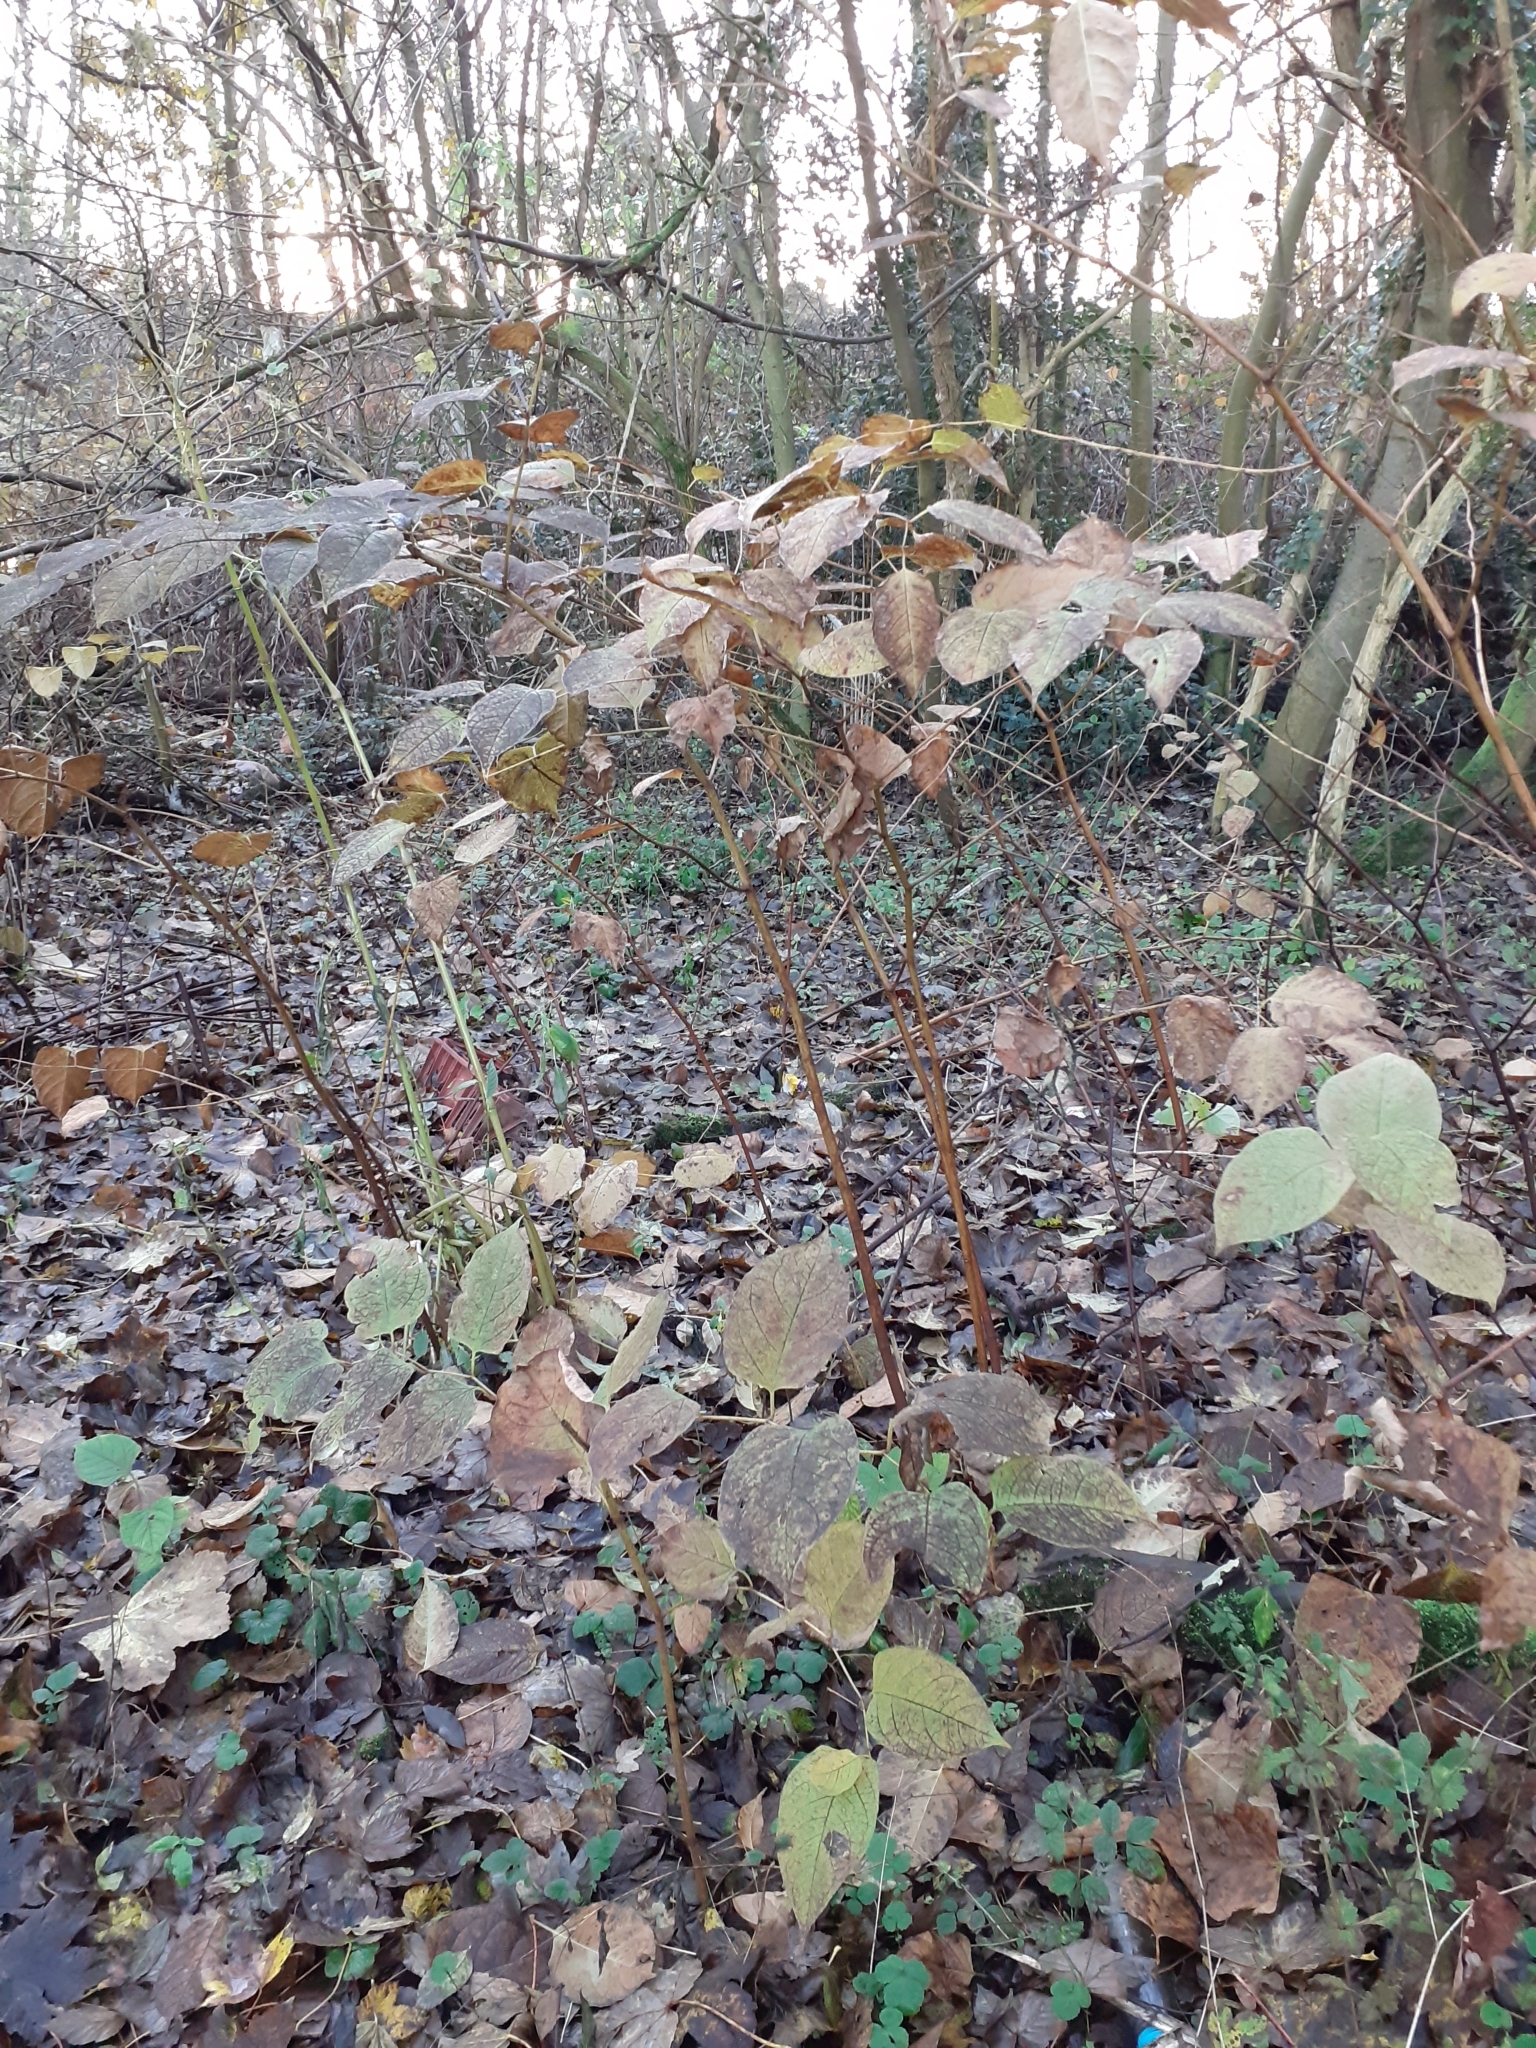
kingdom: Plantae
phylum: Tracheophyta
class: Magnoliopsida
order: Caryophyllales
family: Polygonaceae
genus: Reynoutria
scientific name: Reynoutria japonica
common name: Japanese knotweed
